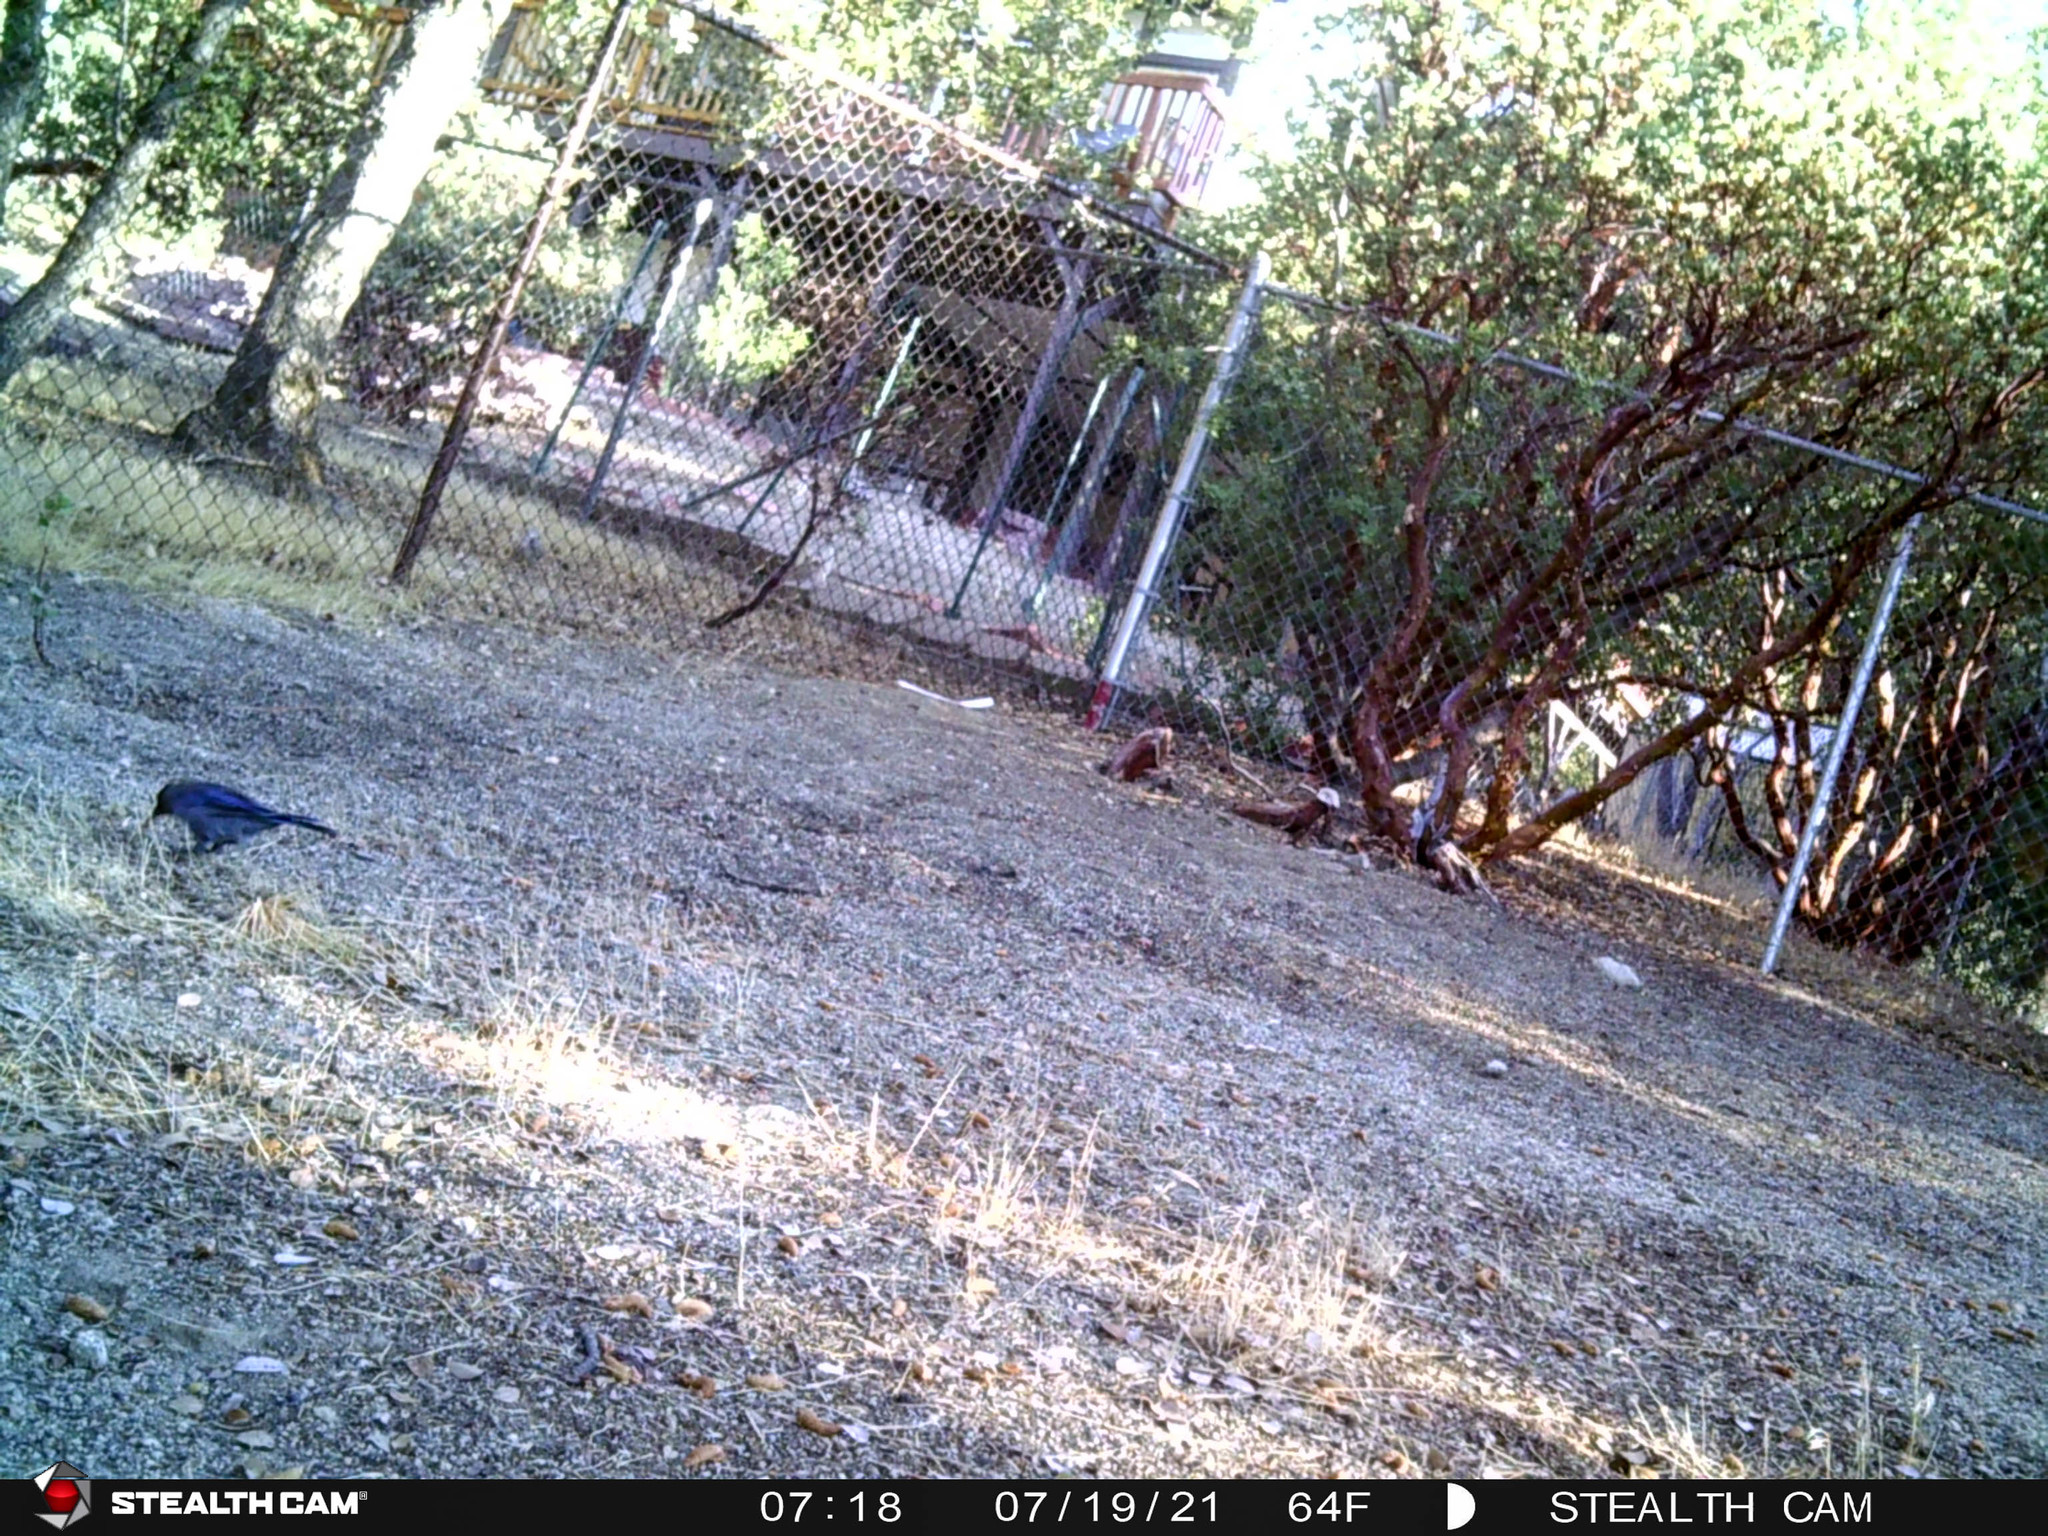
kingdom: Animalia
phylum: Chordata
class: Aves
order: Passeriformes
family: Corvidae
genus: Cyanocitta
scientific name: Cyanocitta stelleri
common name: Steller's jay
